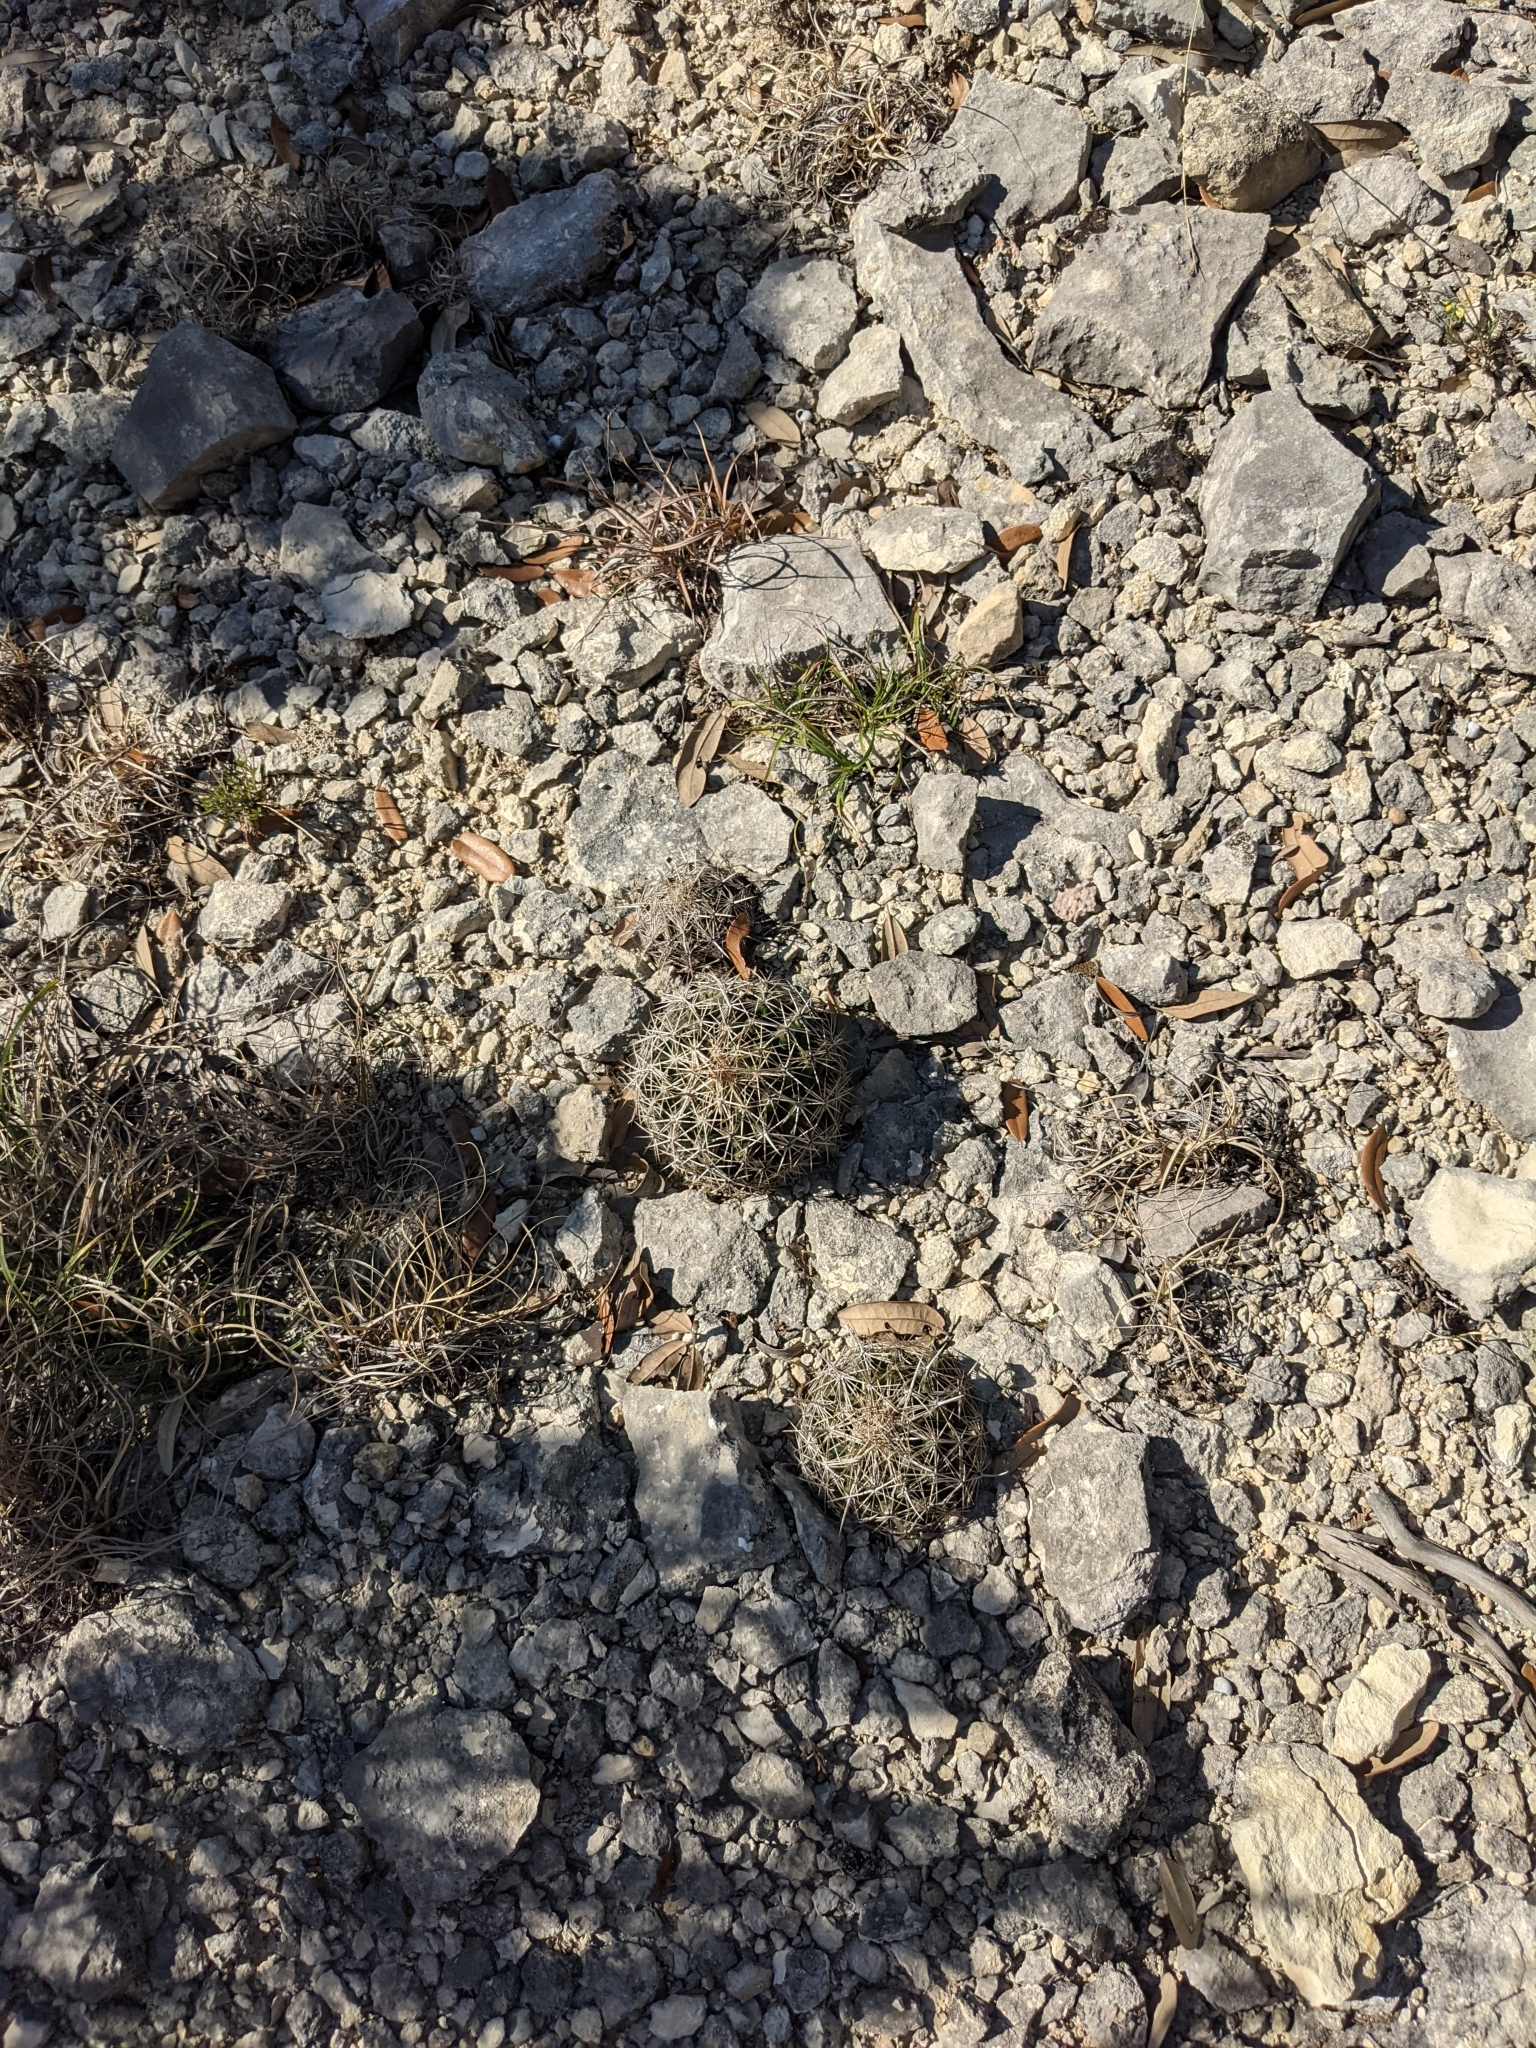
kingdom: Plantae
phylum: Tracheophyta
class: Magnoliopsida
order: Caryophyllales
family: Cactaceae
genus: Coryphantha
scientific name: Coryphantha sulcata
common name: Finger cactus
